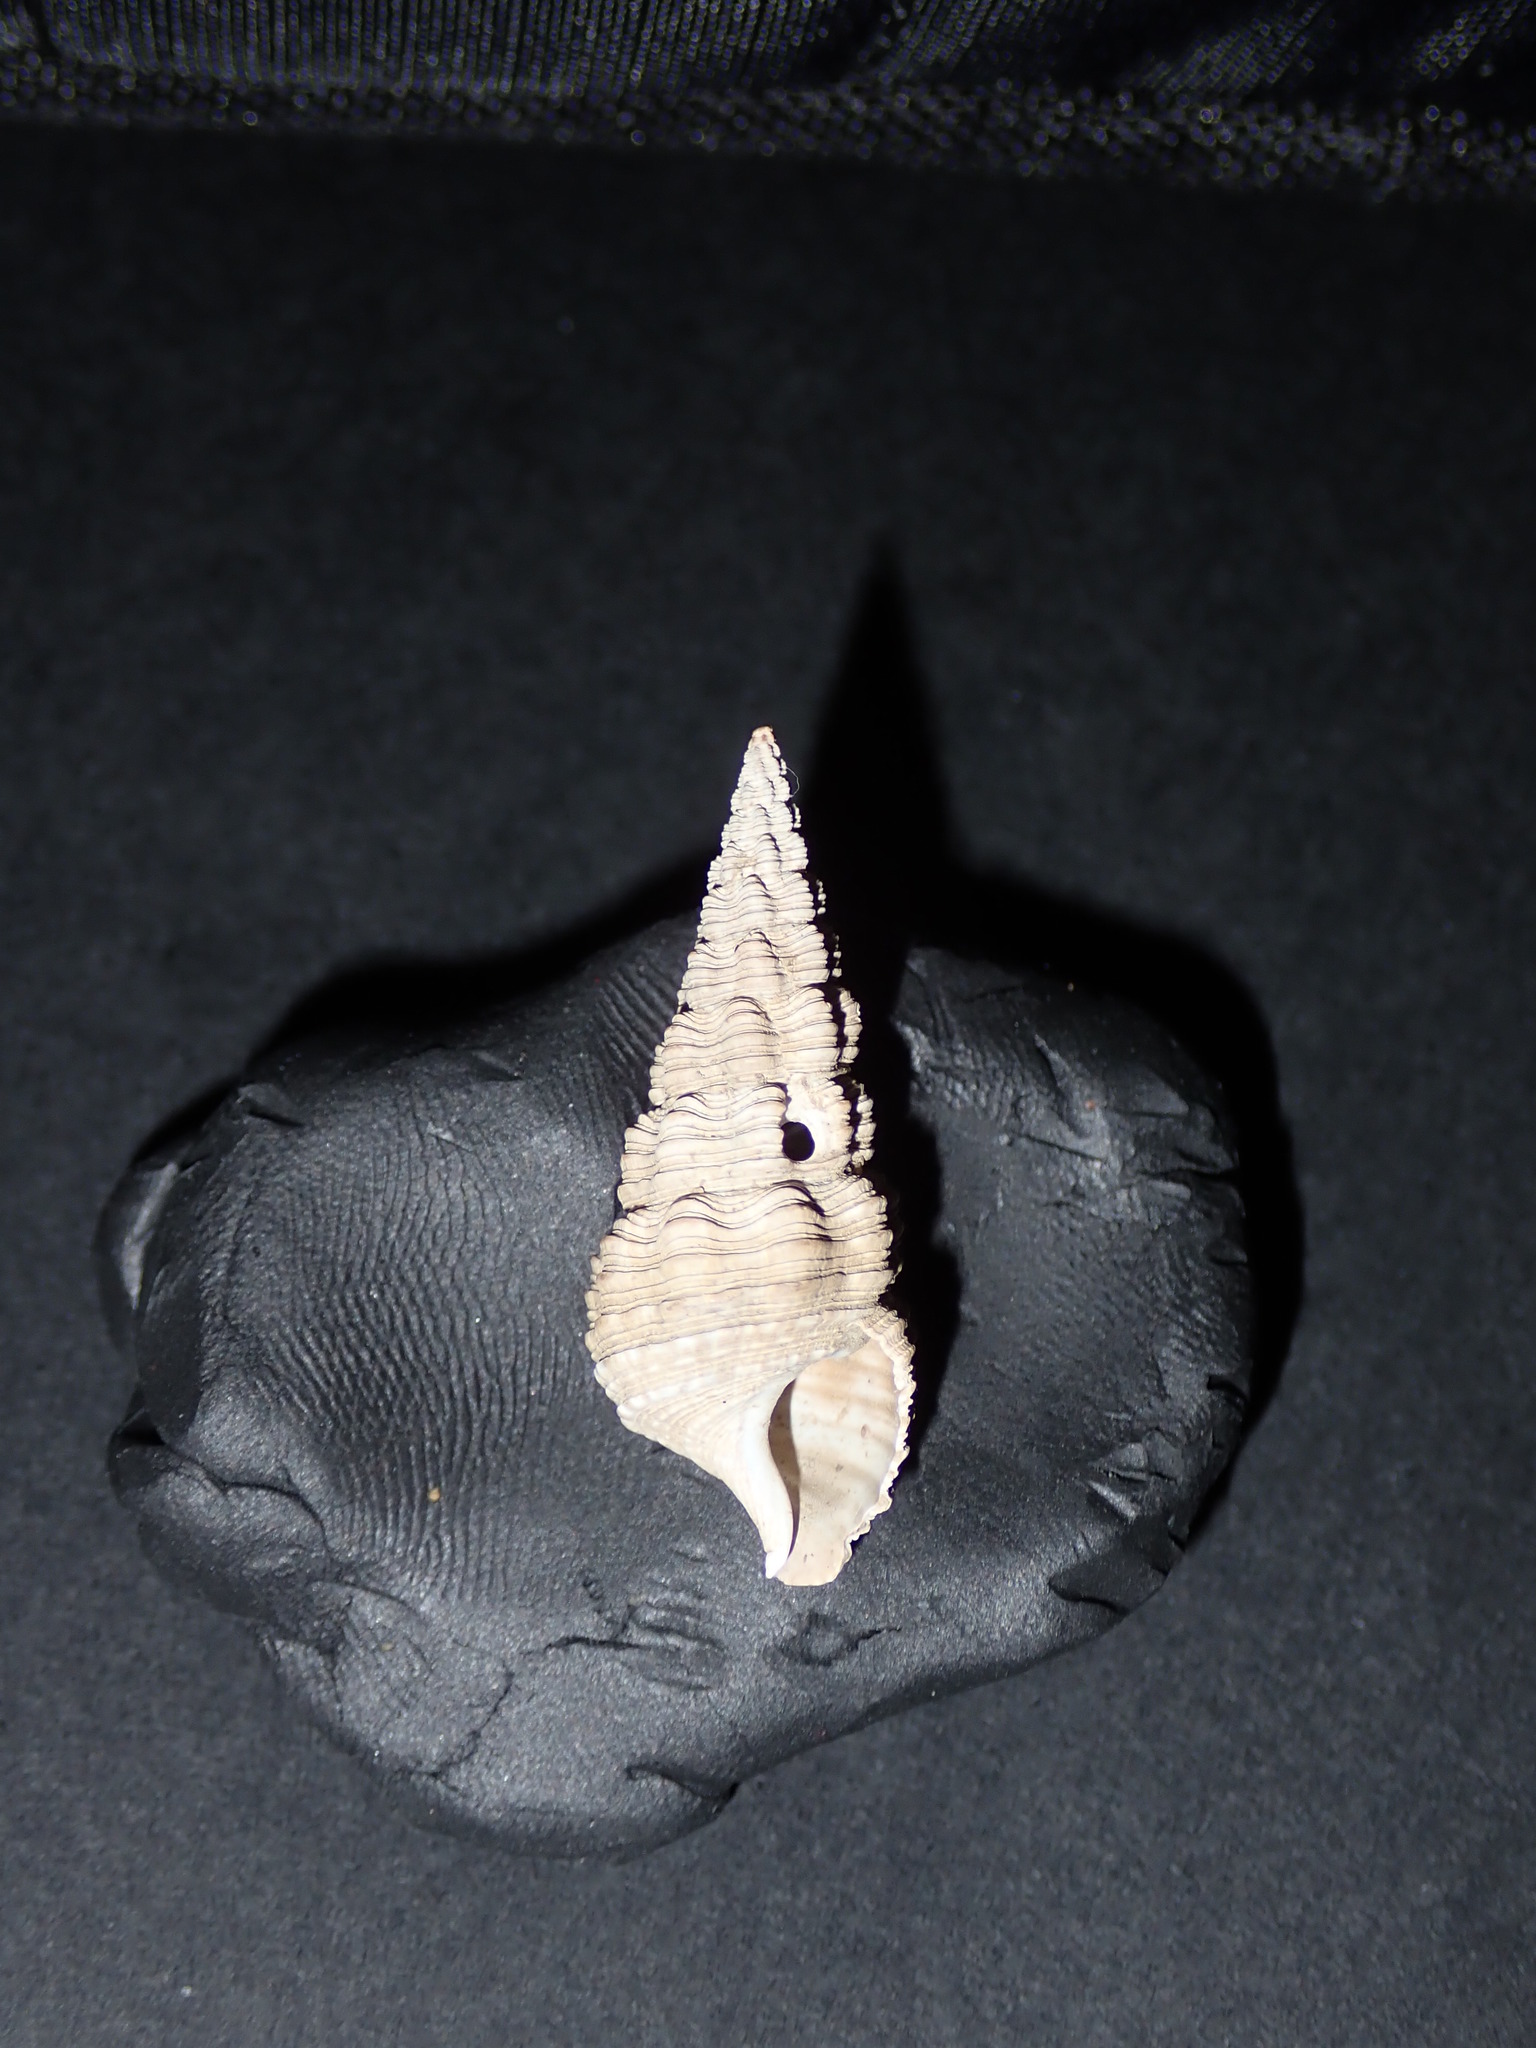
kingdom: Animalia
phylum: Mollusca
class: Gastropoda
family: Batillariidae
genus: Batillaria
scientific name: Batillaria australis
